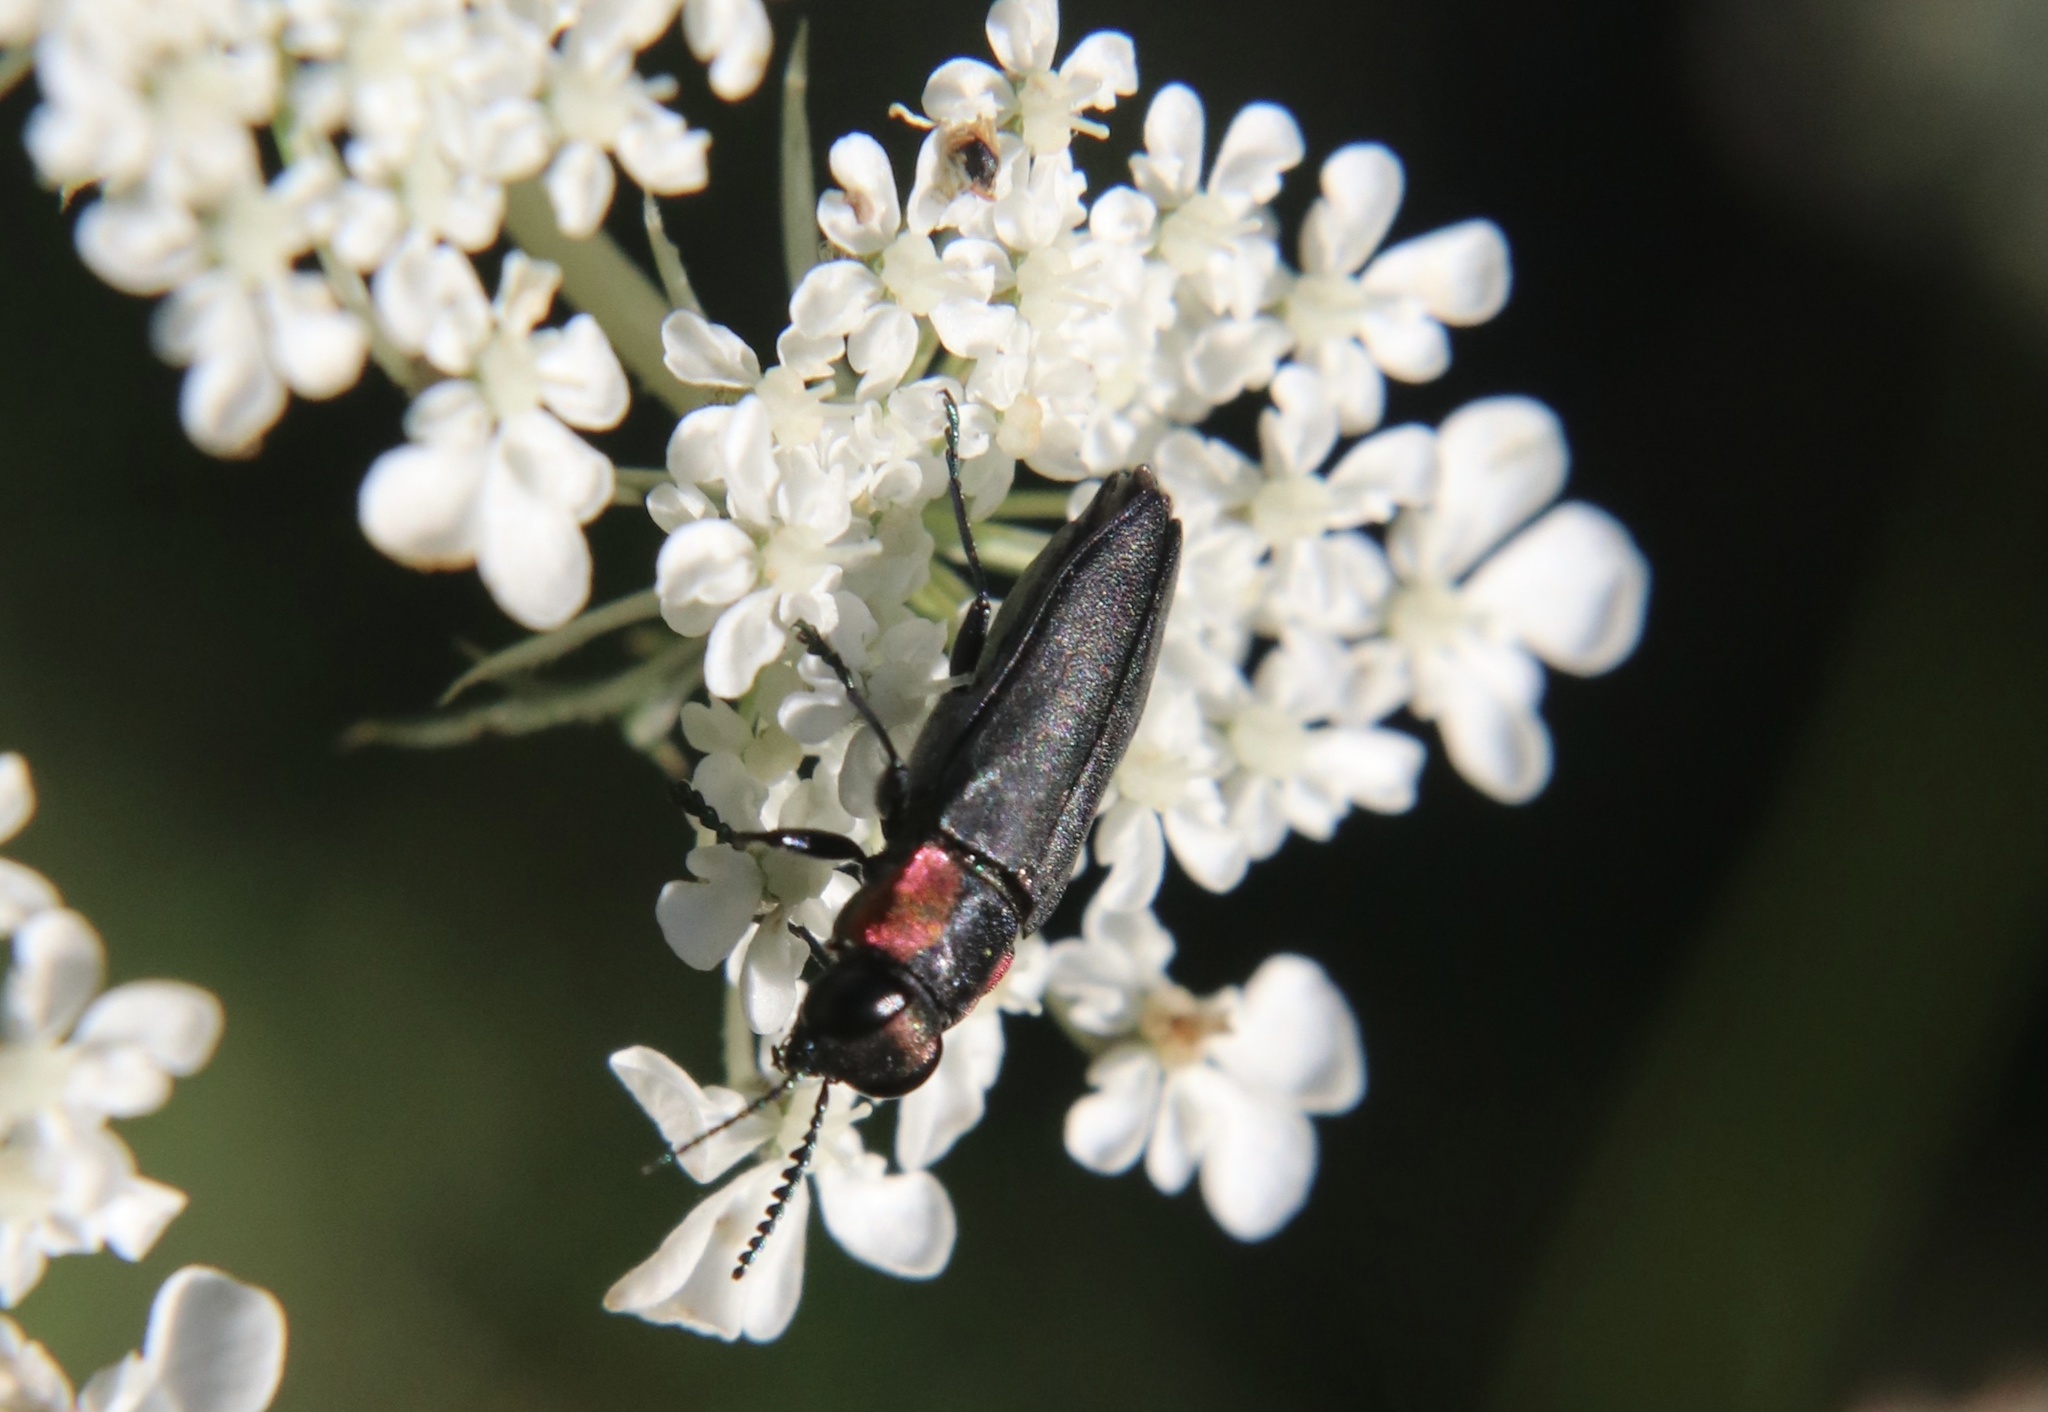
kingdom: Animalia
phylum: Arthropoda
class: Insecta
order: Coleoptera
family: Buprestidae
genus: Romanophora
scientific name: Romanophora verecunda
